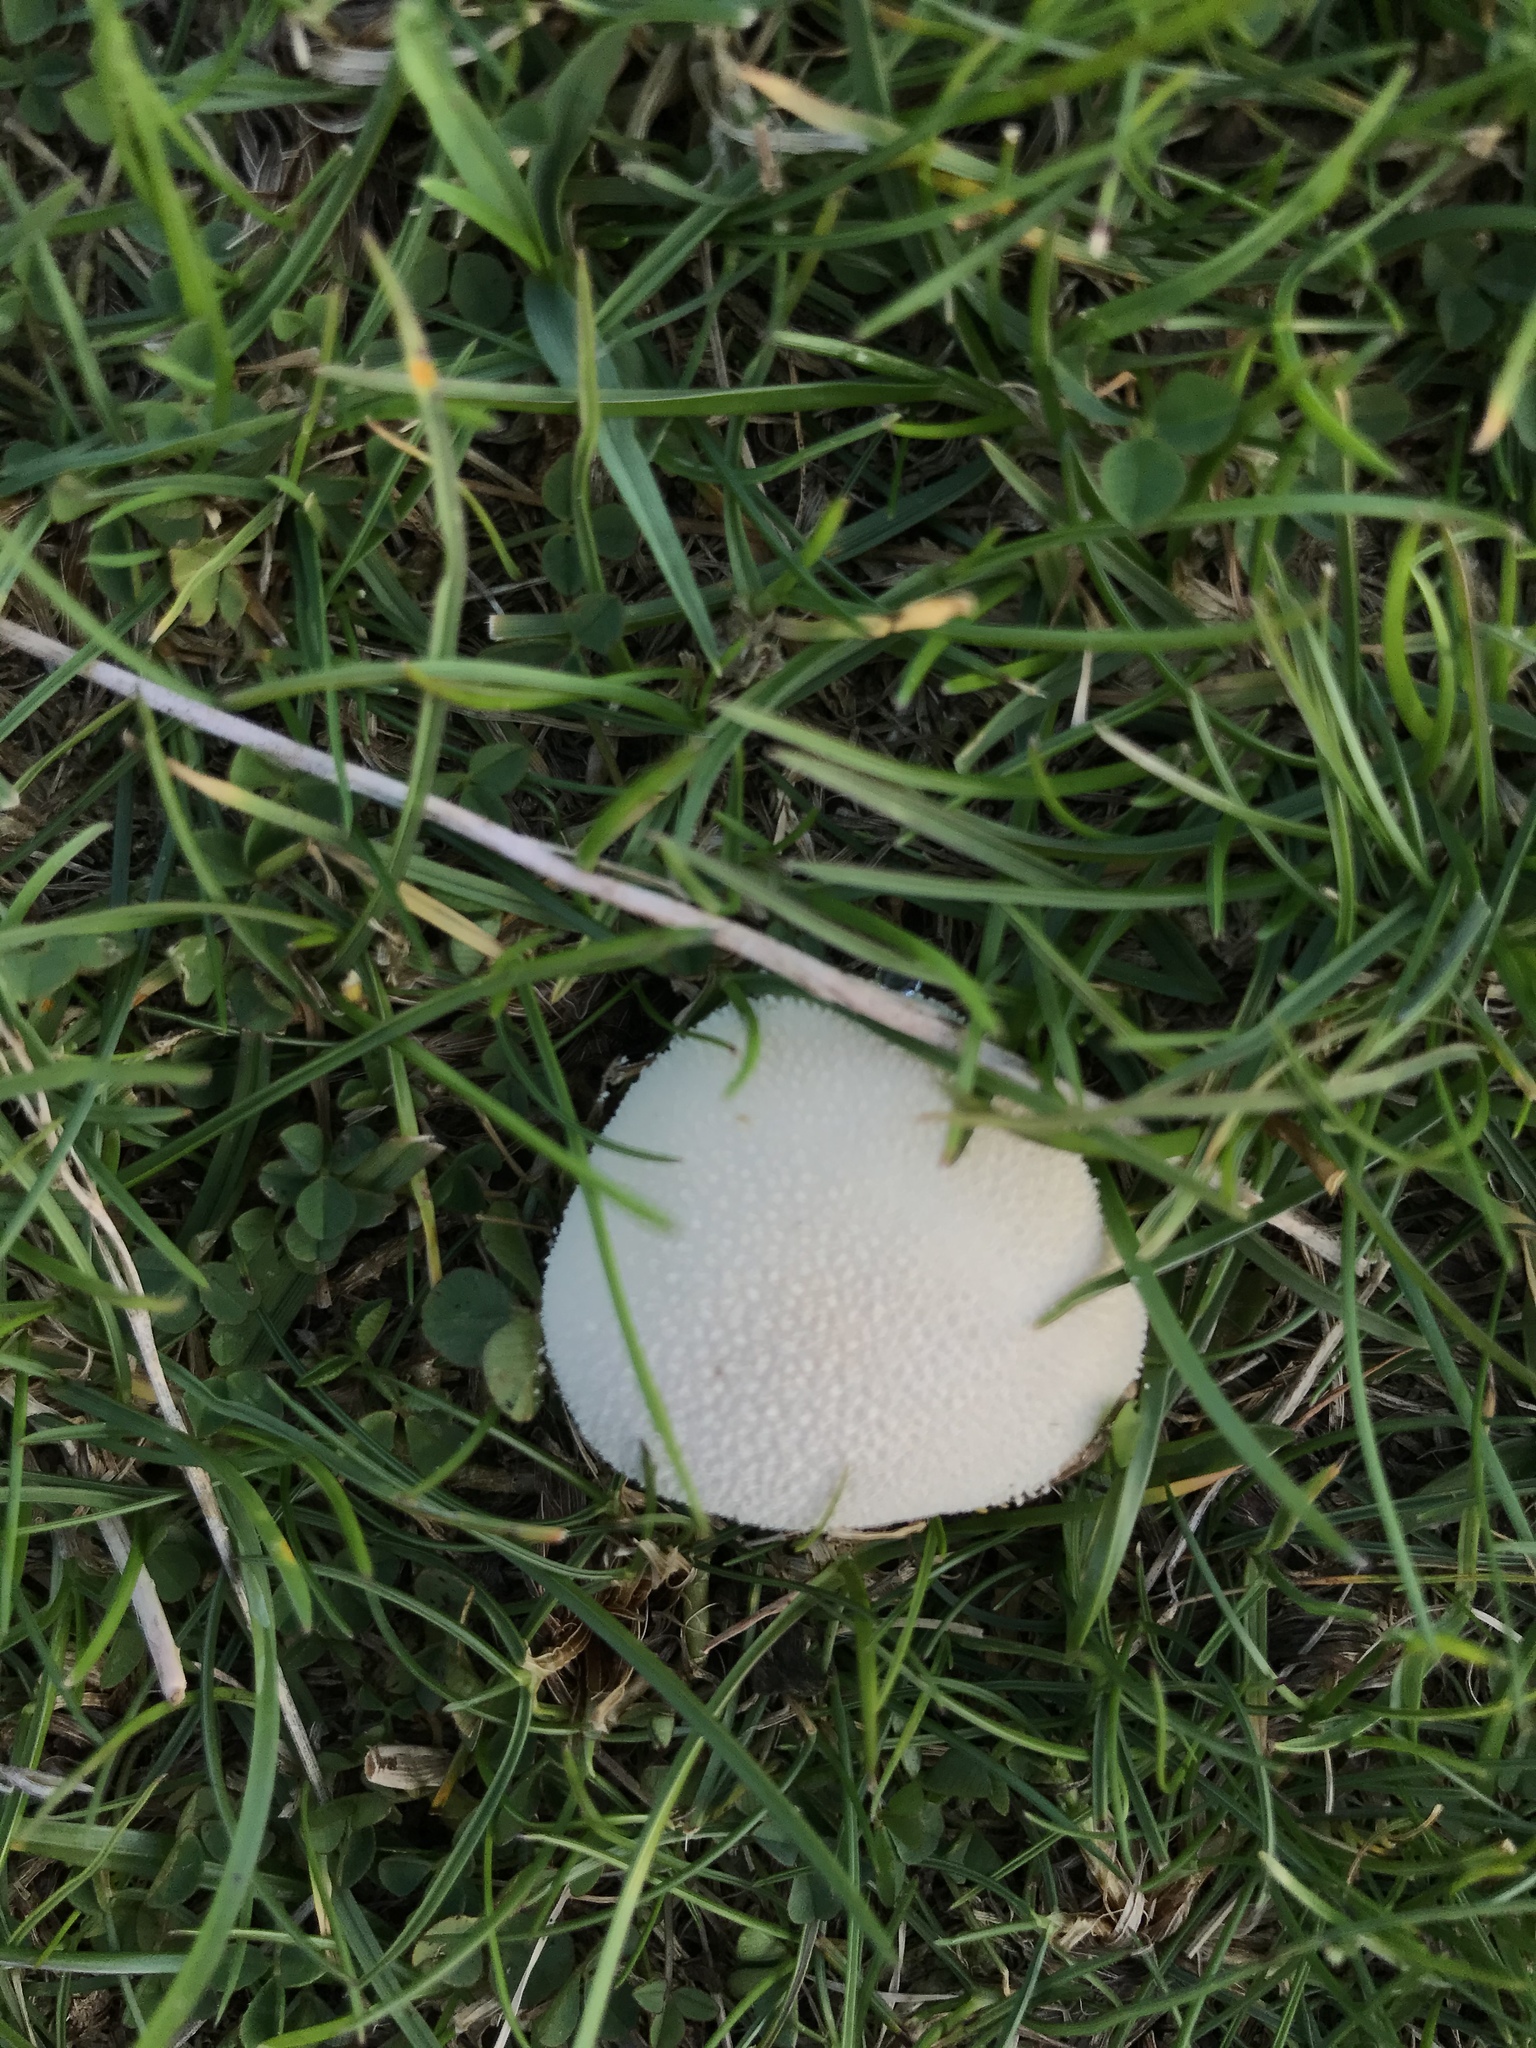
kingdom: Fungi
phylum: Basidiomycota
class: Agaricomycetes
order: Agaricales
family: Lycoperdaceae
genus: Lycoperdon
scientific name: Lycoperdon pratense
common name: Meadow puffball
